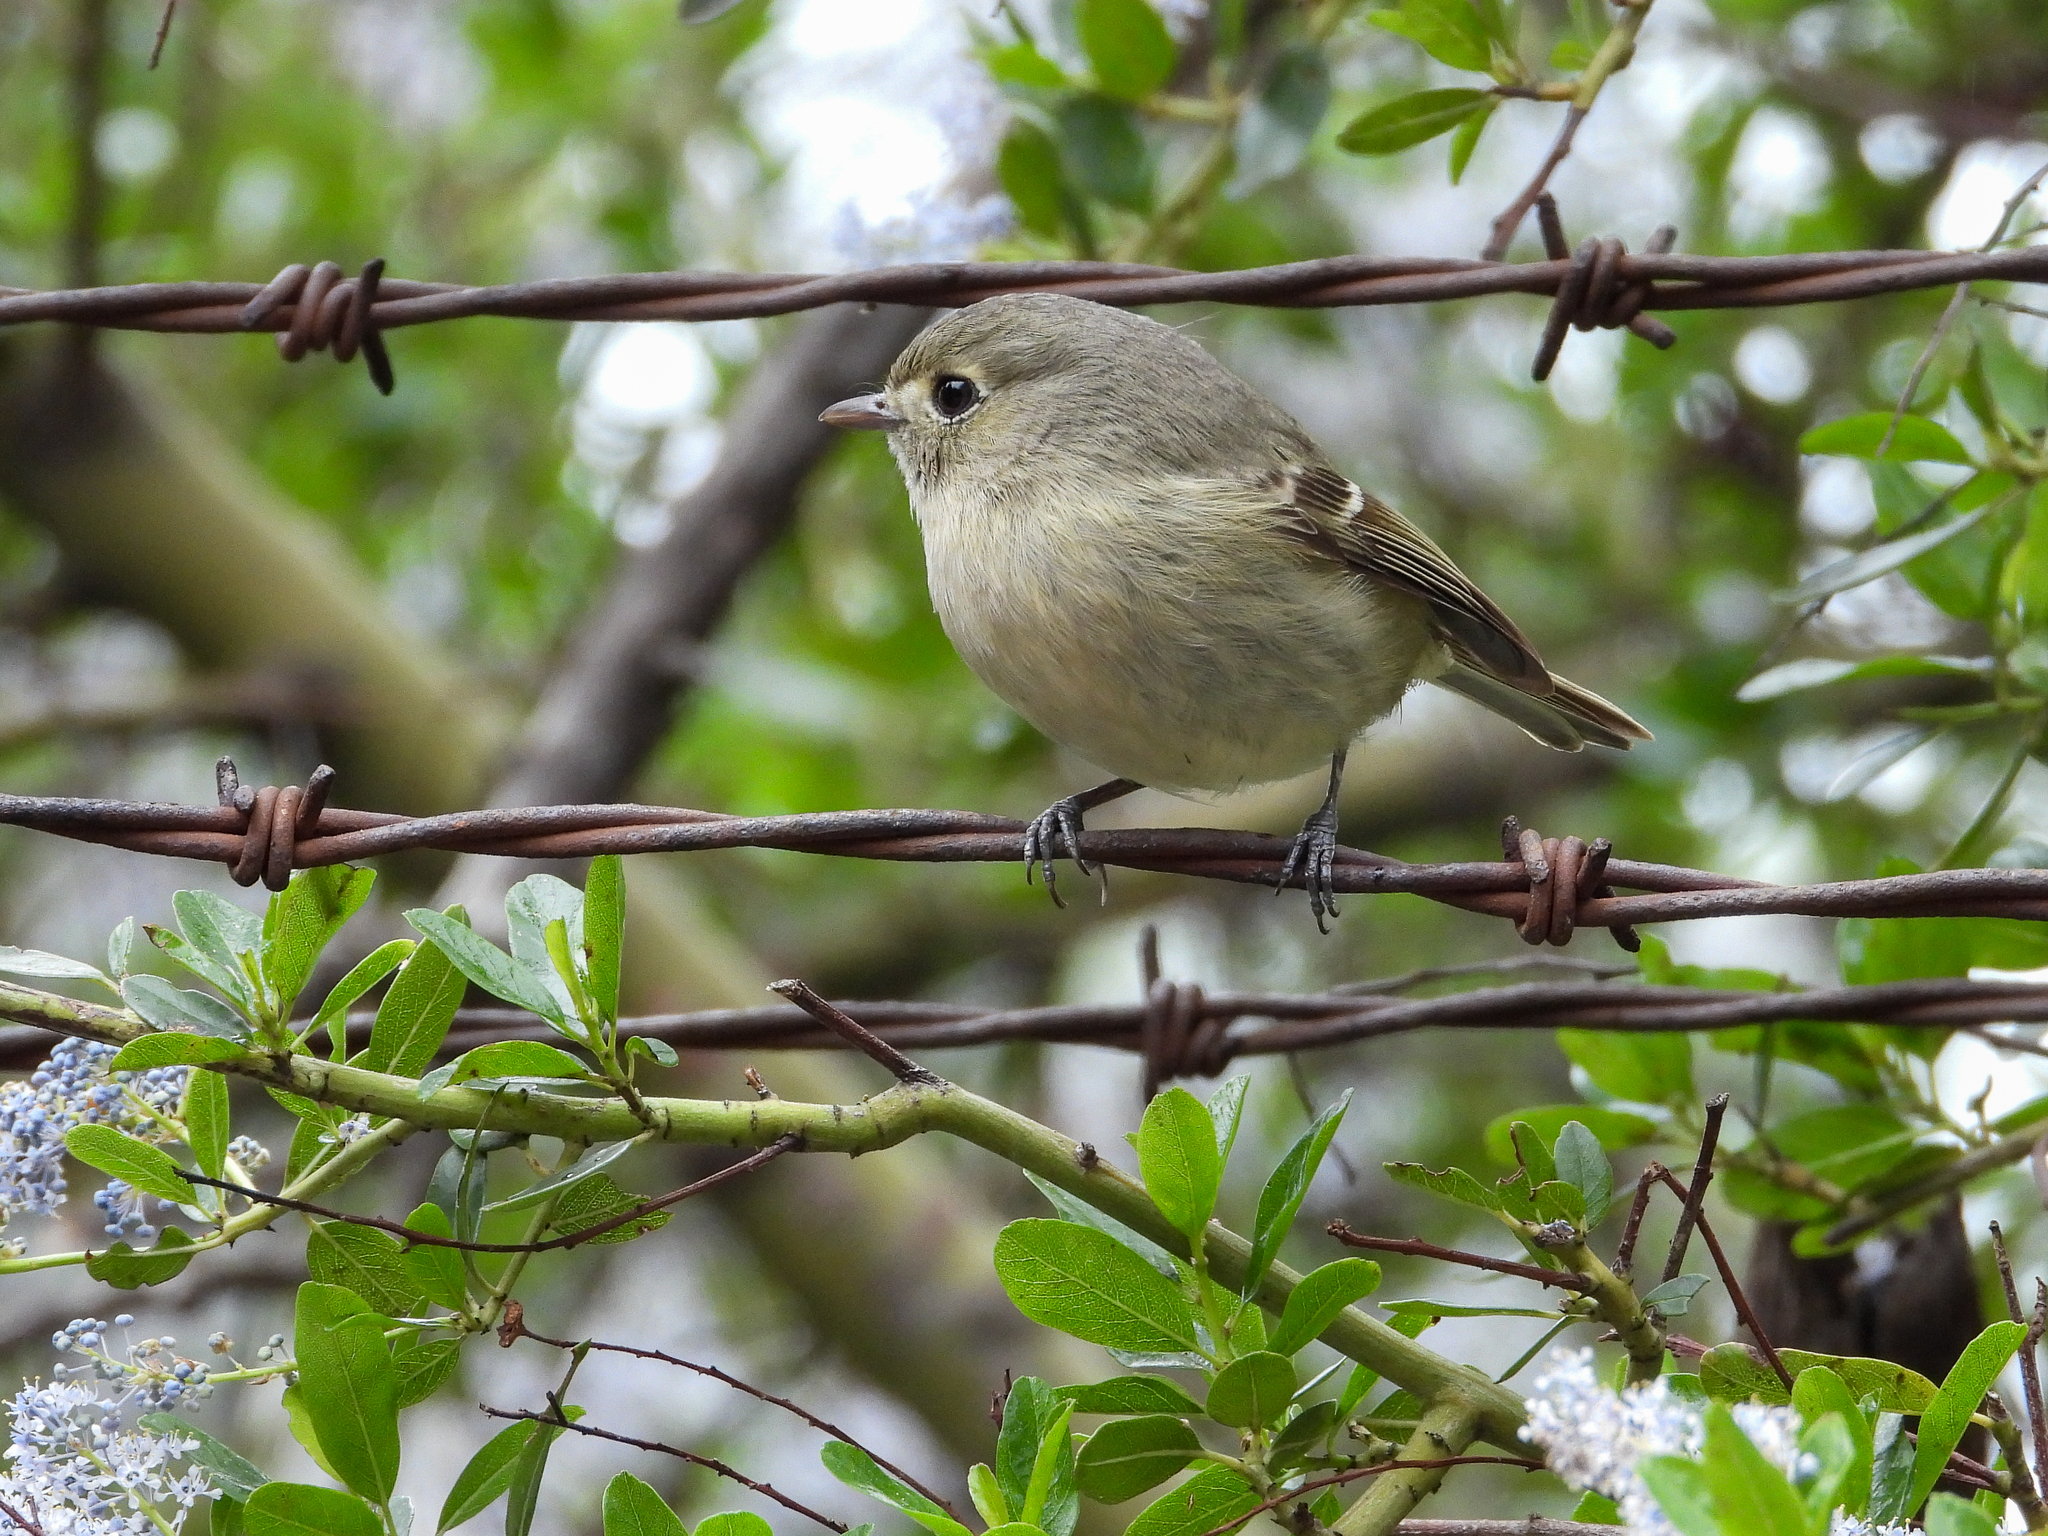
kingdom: Animalia
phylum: Chordata
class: Aves
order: Passeriformes
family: Vireonidae
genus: Vireo
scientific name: Vireo huttoni
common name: Hutton's vireo
